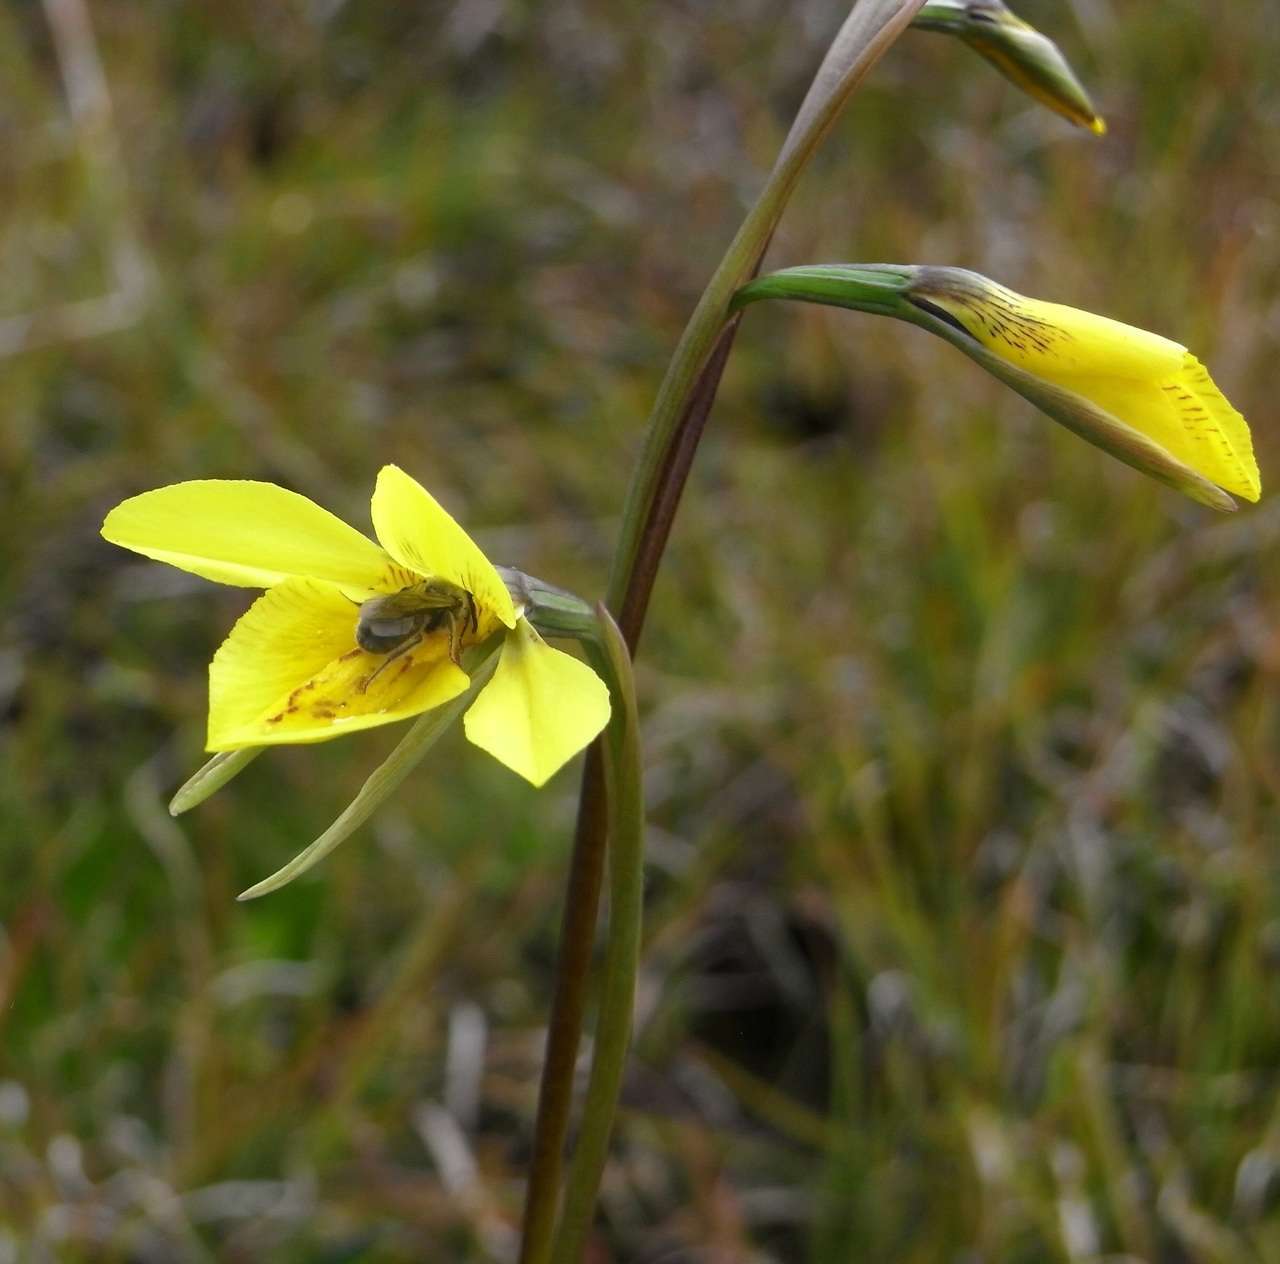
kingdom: Plantae
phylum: Tracheophyta
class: Liliopsida
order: Asparagales
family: Orchidaceae
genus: Diuris
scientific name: Diuris behrii
